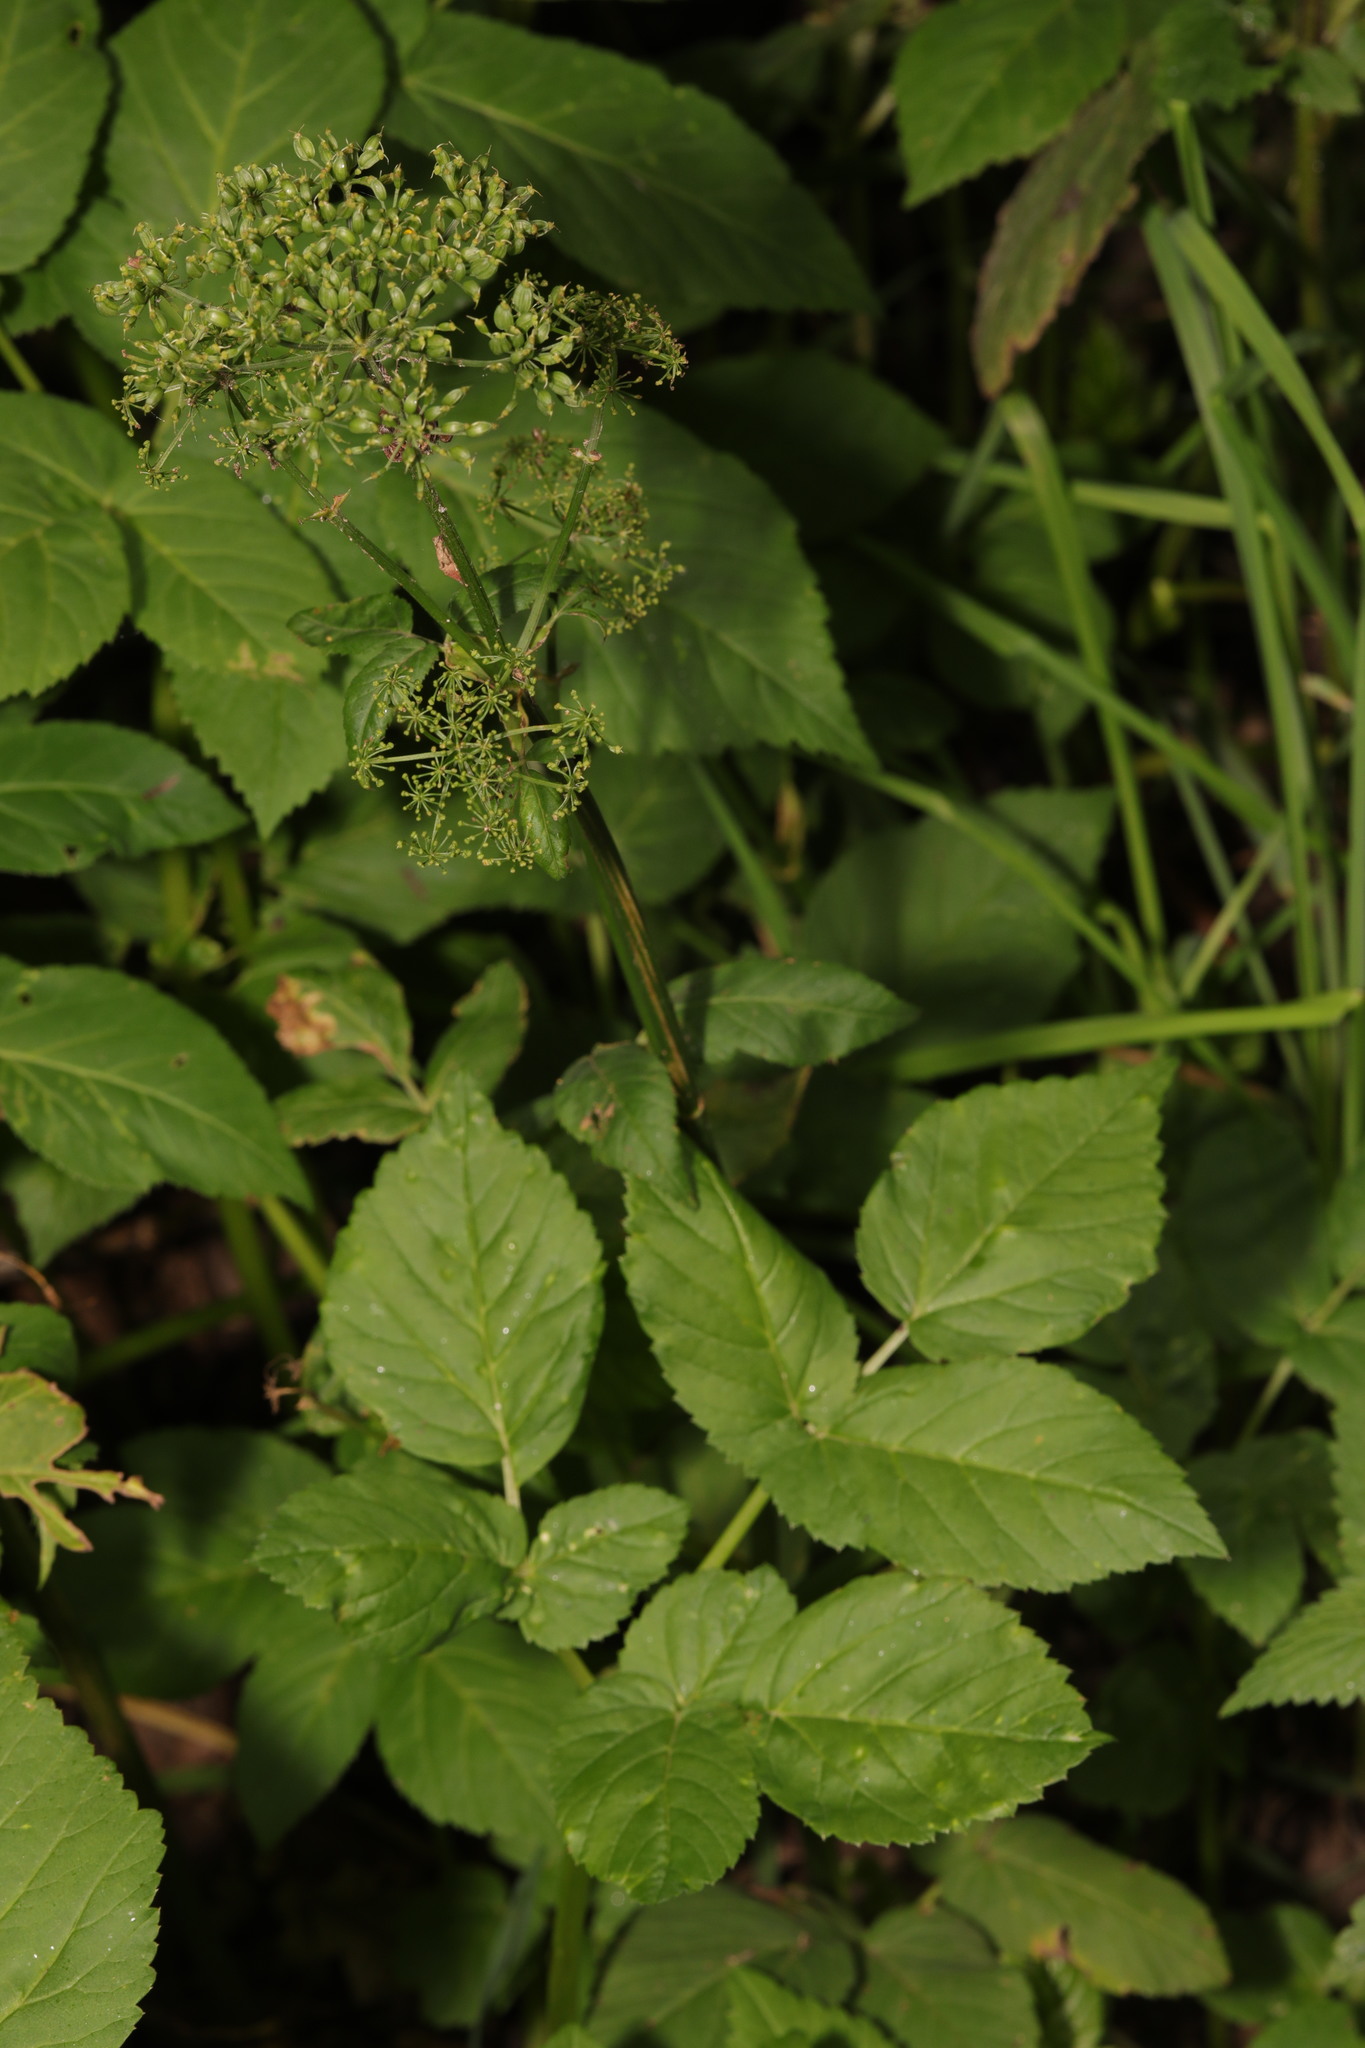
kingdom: Plantae
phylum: Tracheophyta
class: Magnoliopsida
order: Apiales
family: Apiaceae
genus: Aegopodium
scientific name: Aegopodium podagraria
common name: Ground-elder
